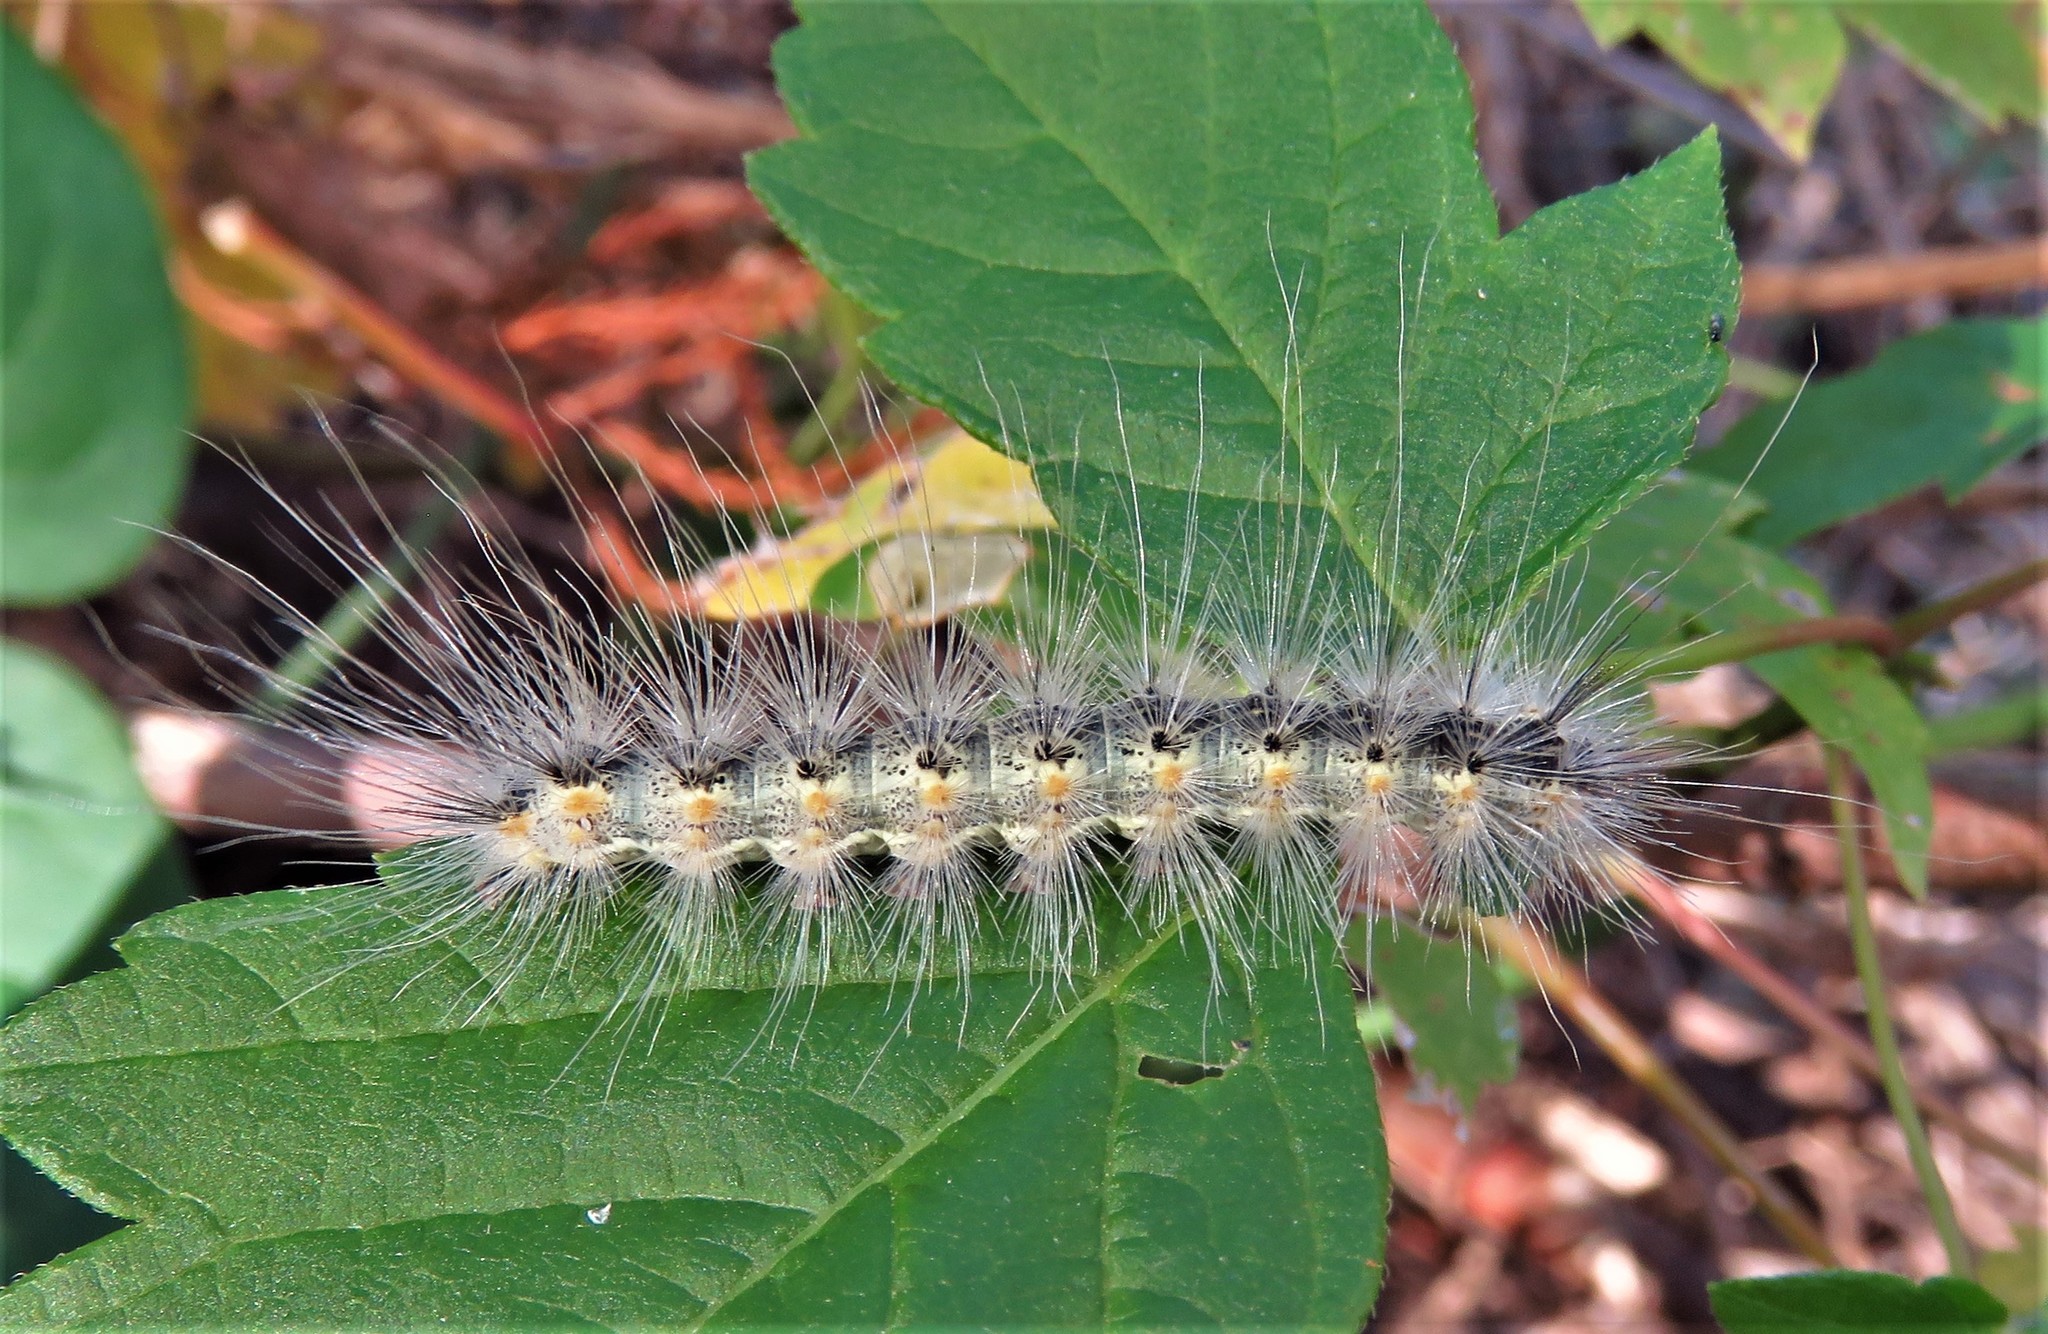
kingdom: Animalia
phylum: Arthropoda
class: Insecta
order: Lepidoptera
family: Erebidae
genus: Hyphantria
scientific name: Hyphantria cunea
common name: American white moth
